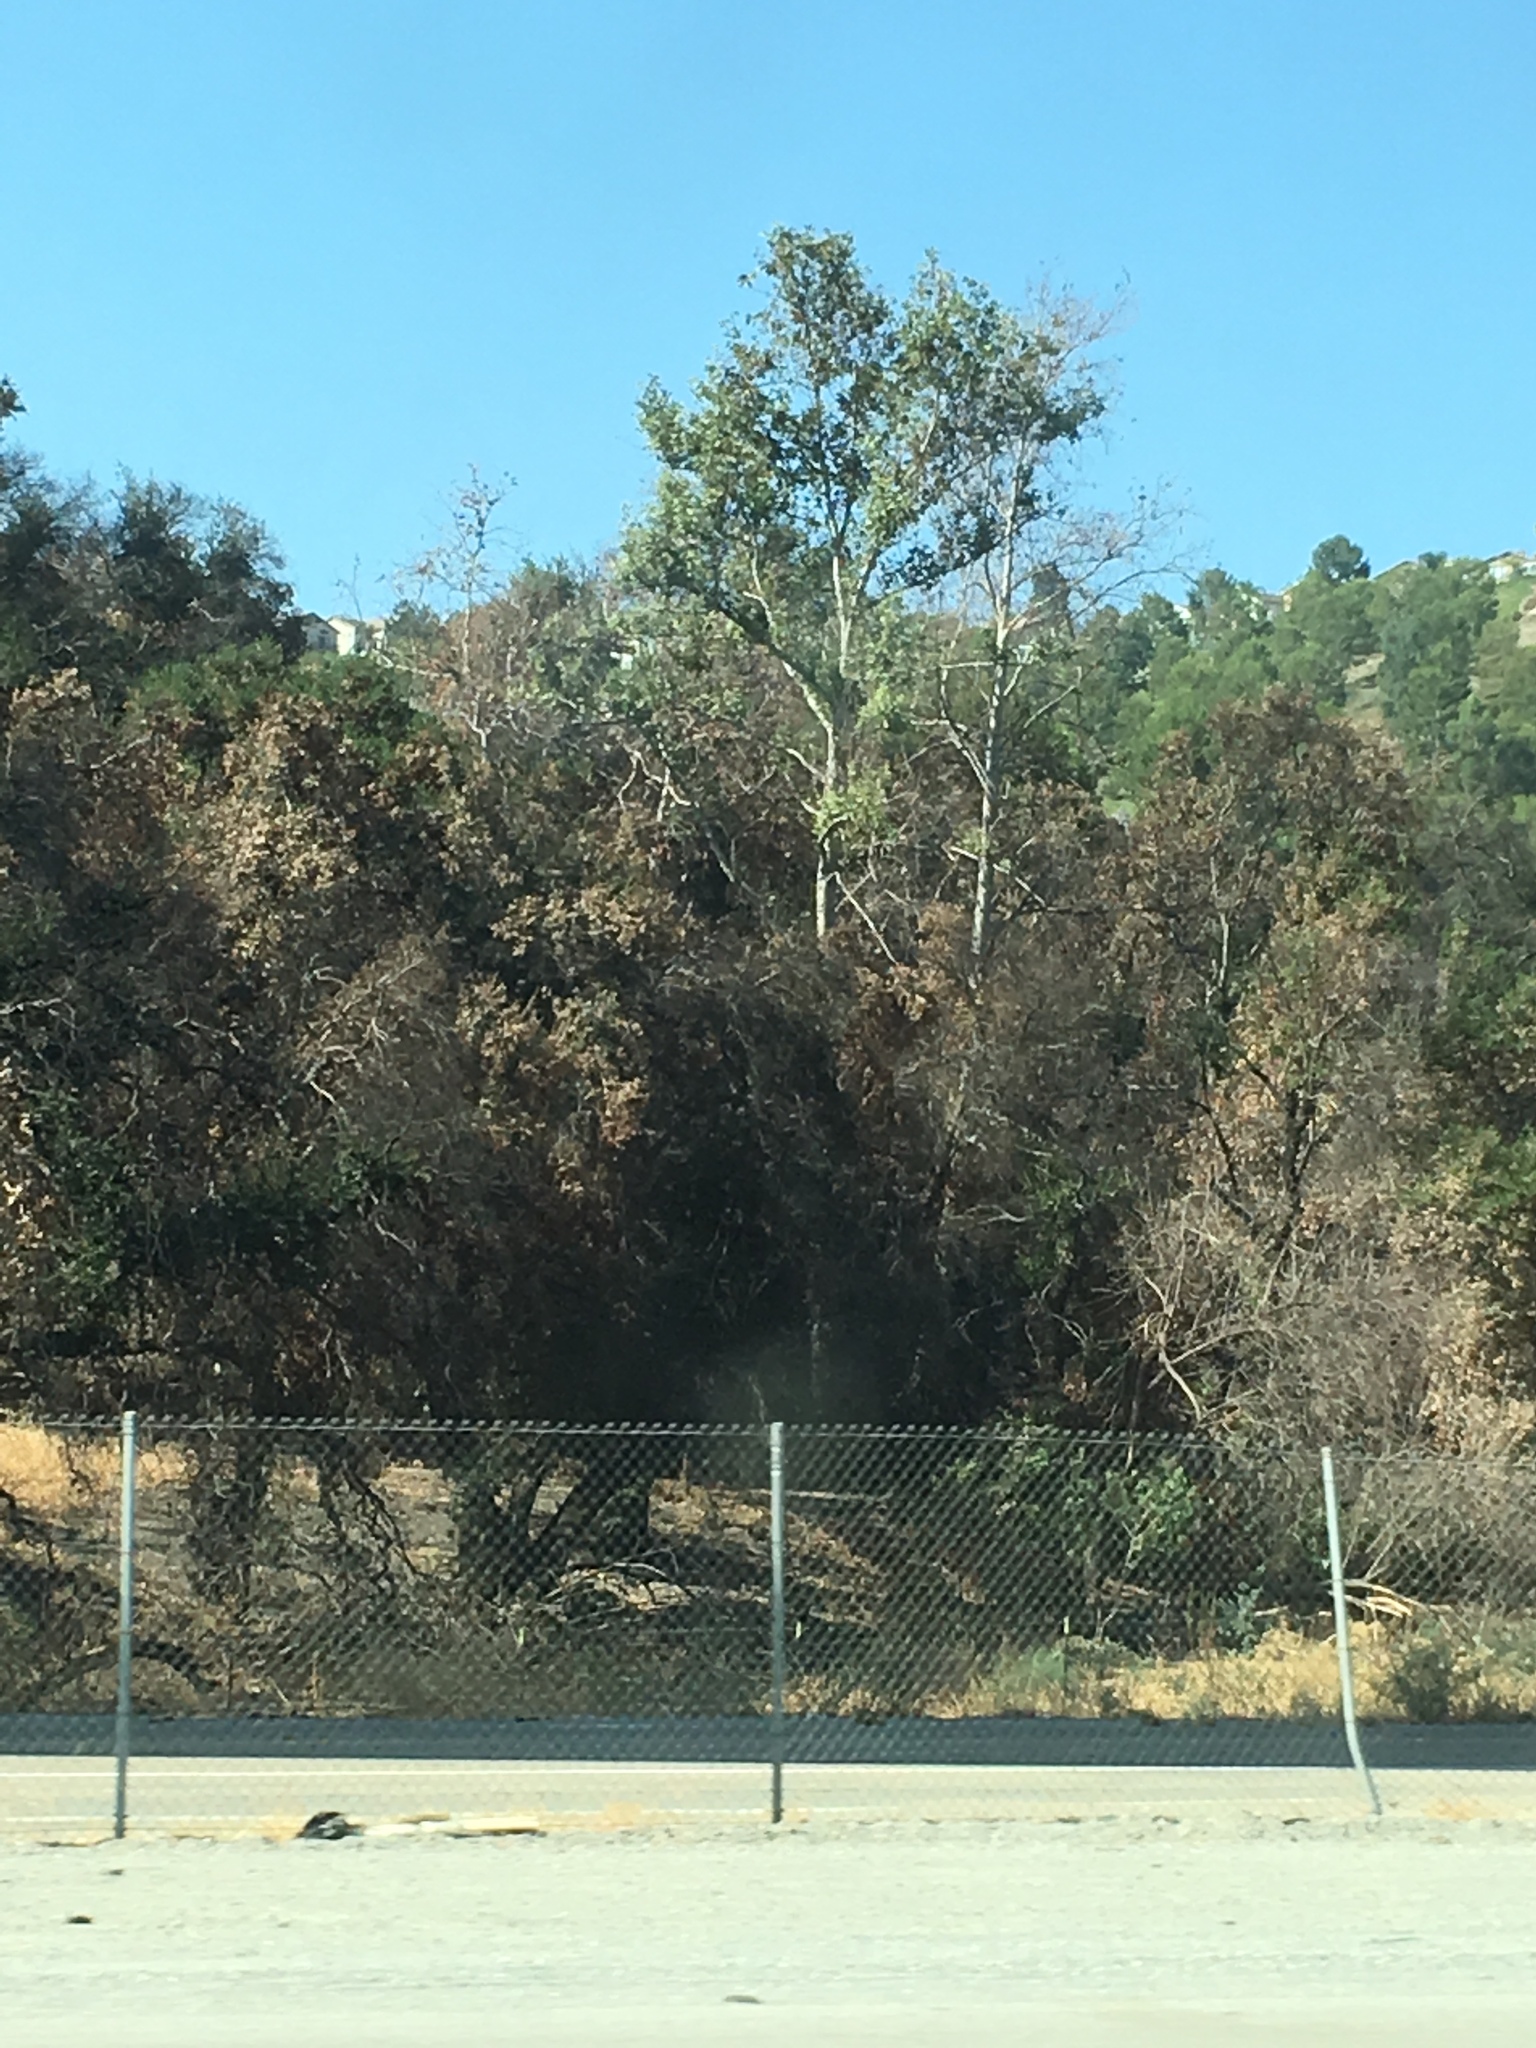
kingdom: Plantae
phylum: Tracheophyta
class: Magnoliopsida
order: Fagales
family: Fagaceae
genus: Quercus
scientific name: Quercus agrifolia
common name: California live oak
